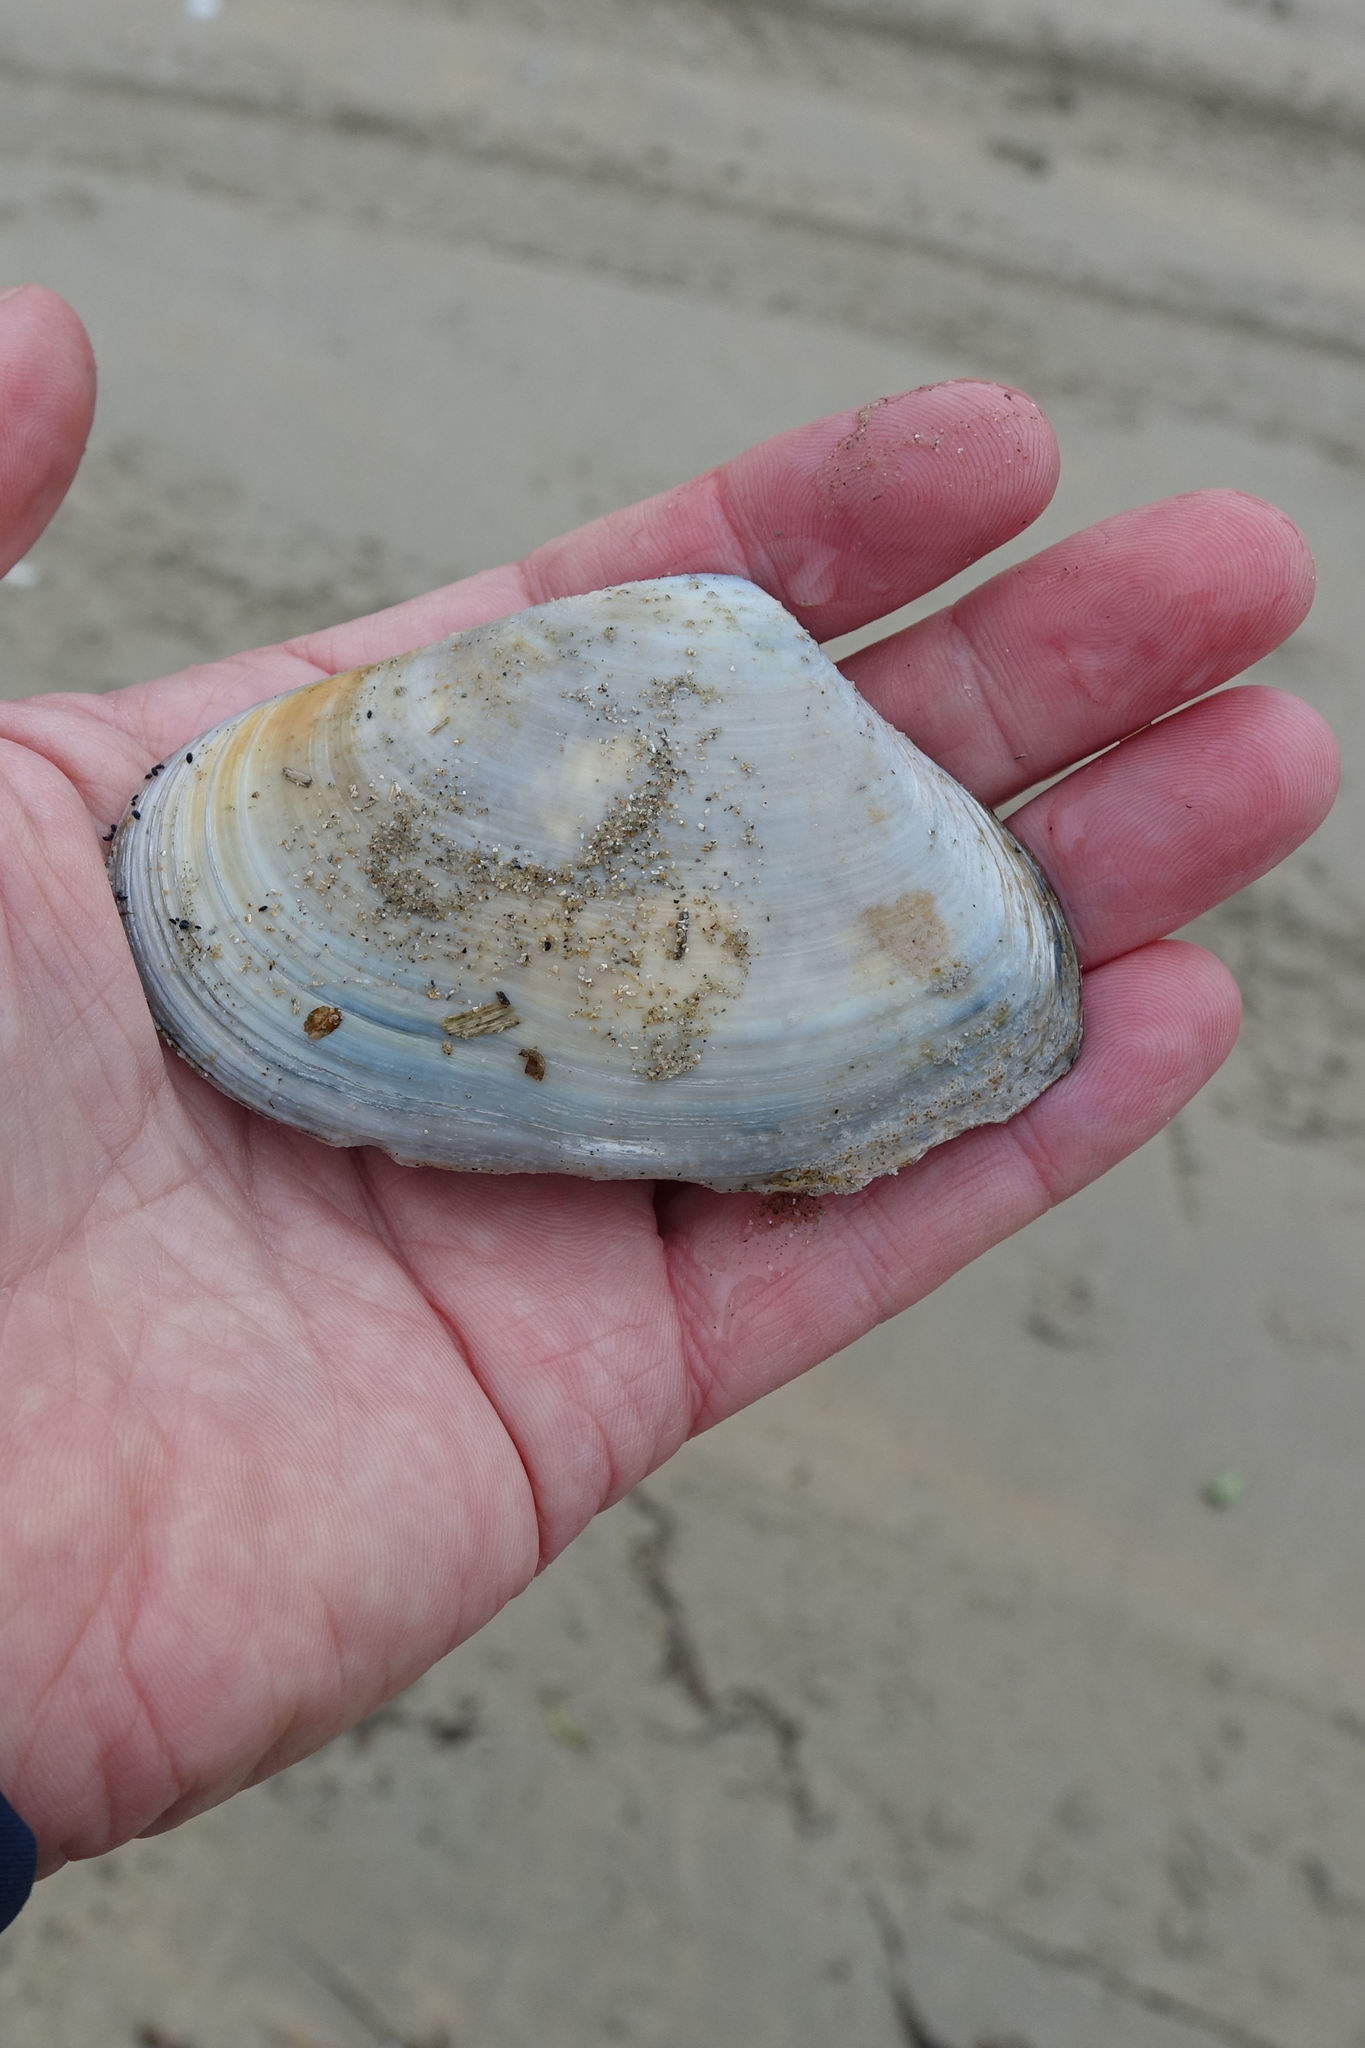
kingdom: Animalia
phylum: Mollusca
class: Bivalvia
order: Venerida
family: Mesodesmatidae
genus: Paphies
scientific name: Paphies donacina
